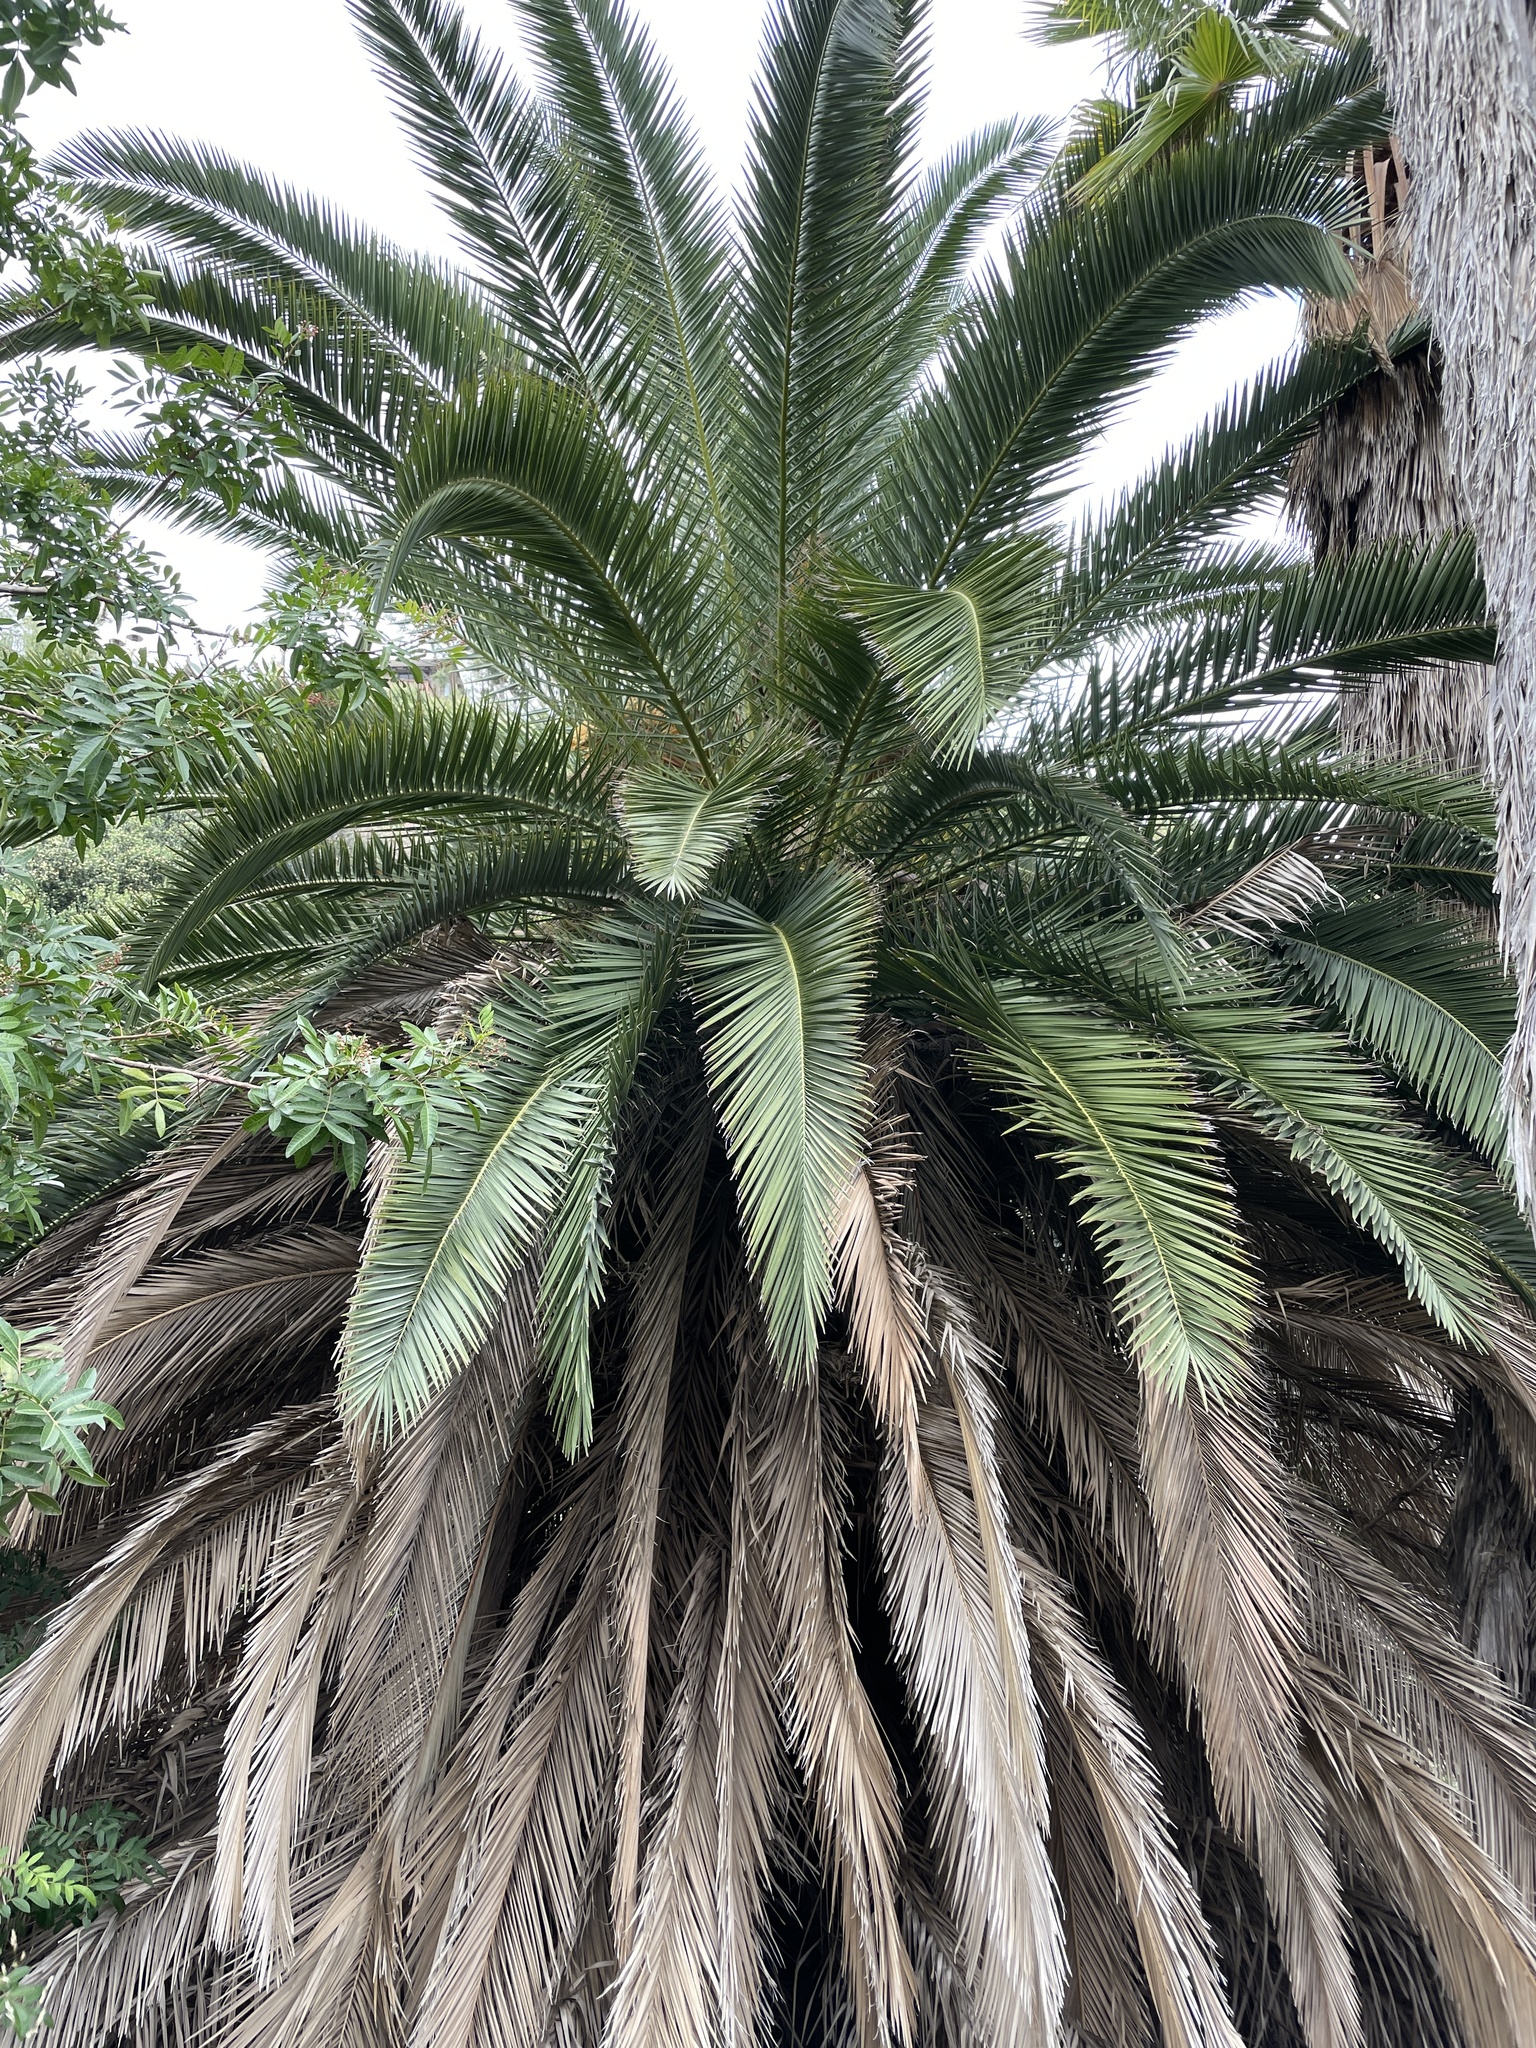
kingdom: Plantae
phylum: Tracheophyta
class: Liliopsida
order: Arecales
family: Arecaceae
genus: Phoenix
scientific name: Phoenix canariensis
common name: Canary island date palm
